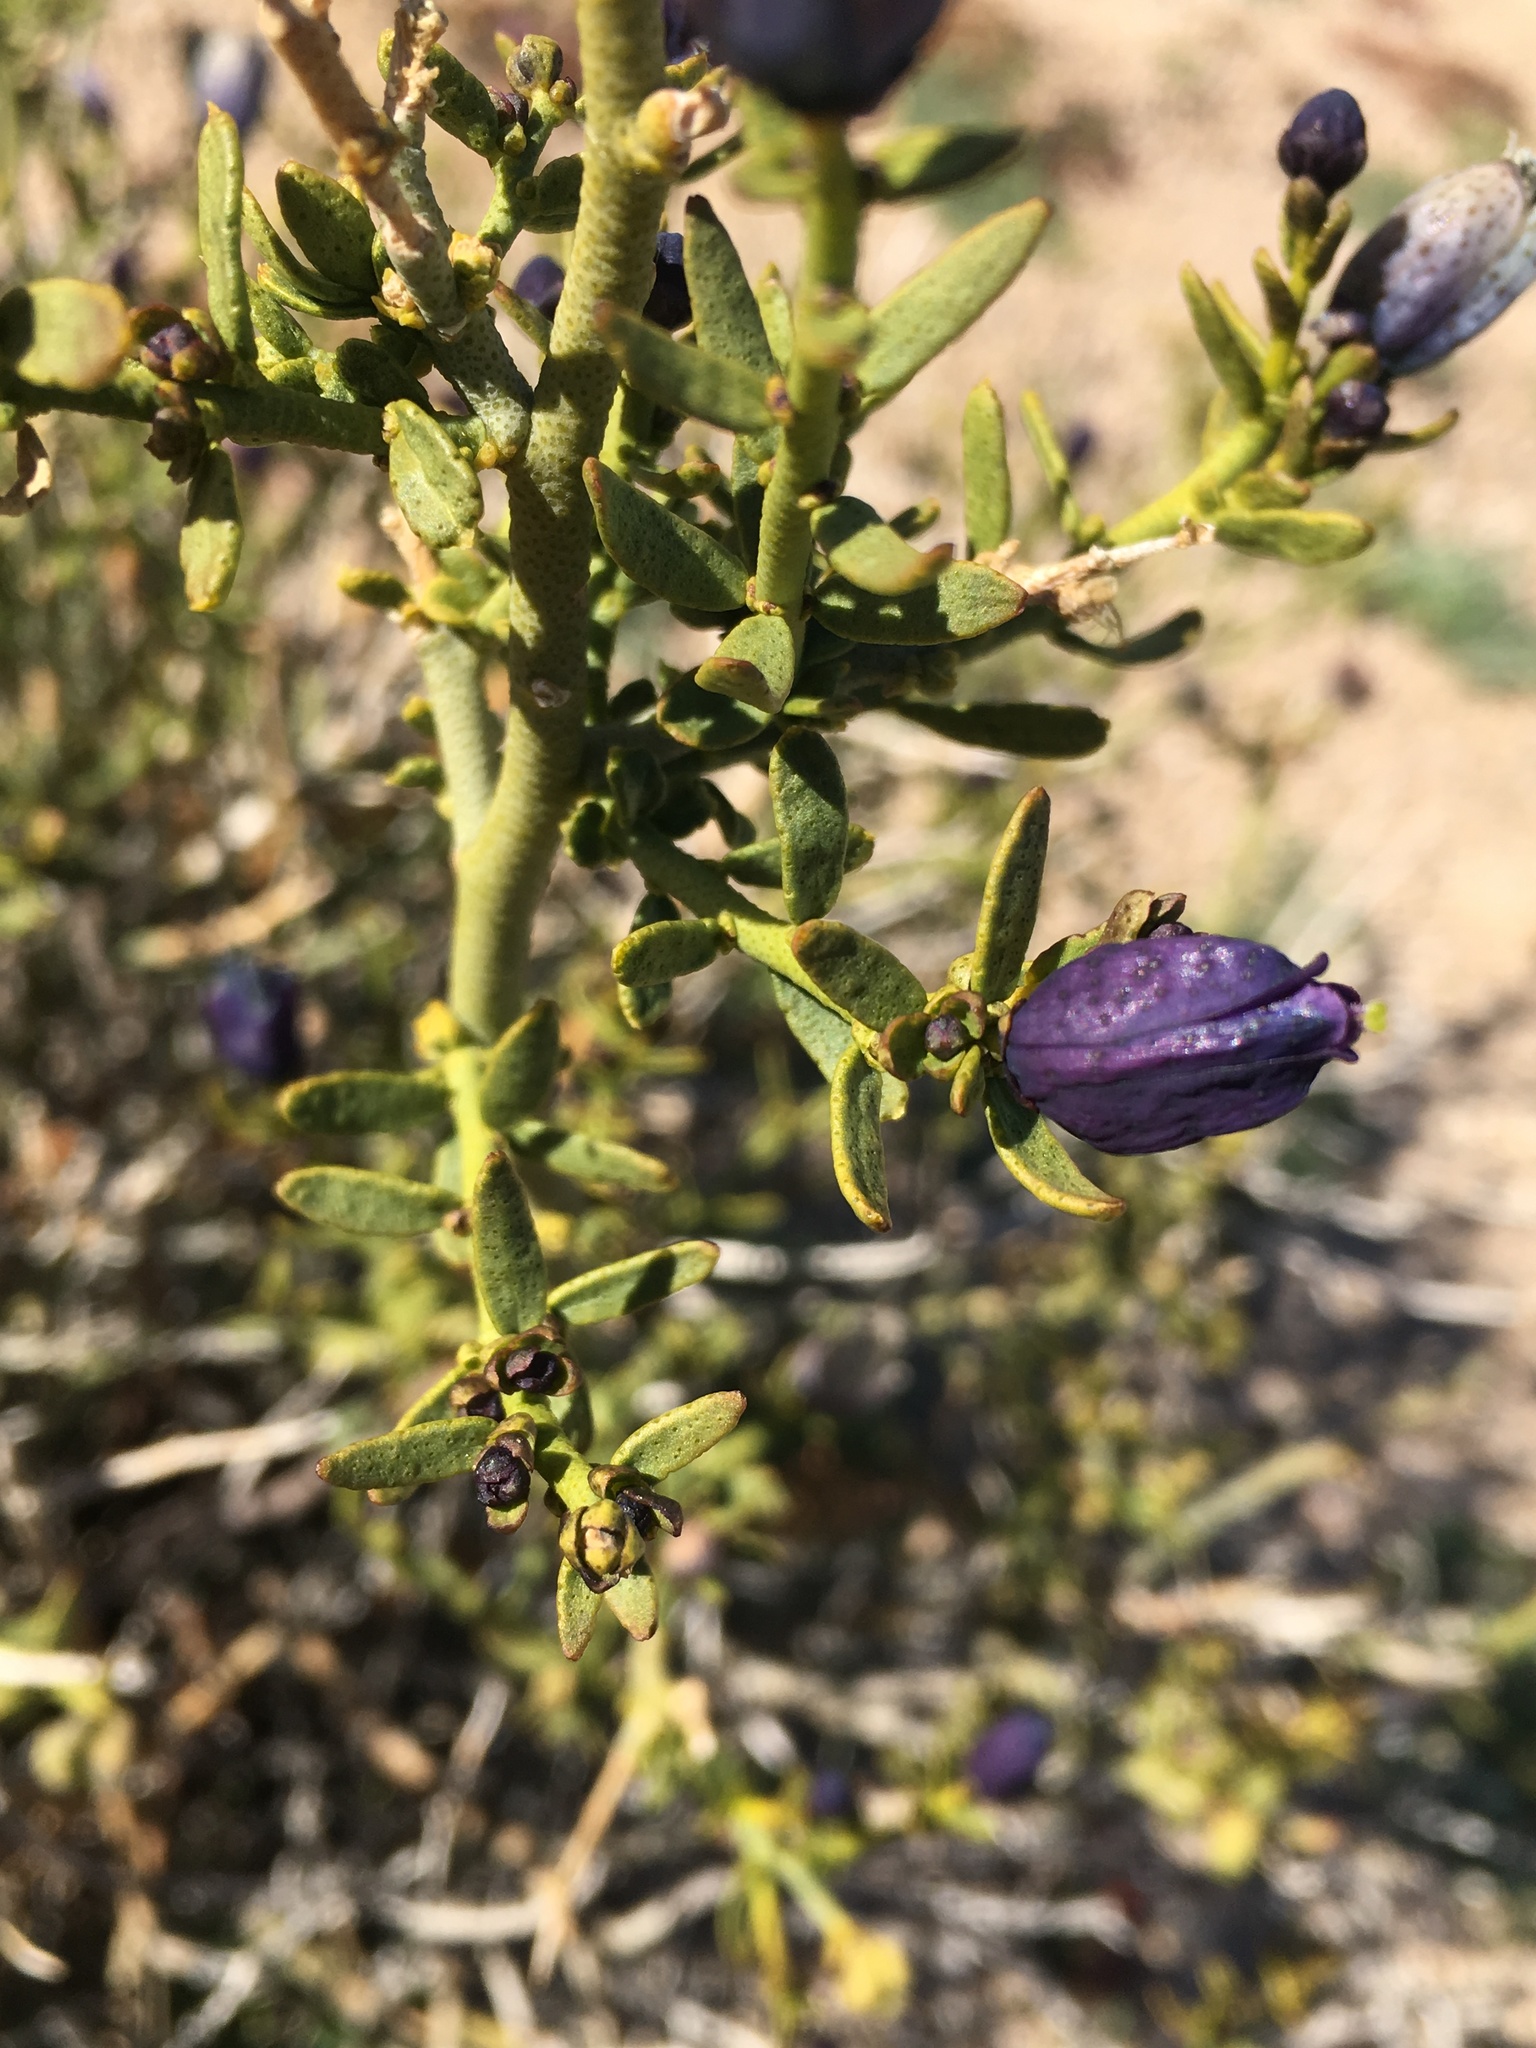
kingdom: Plantae
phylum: Tracheophyta
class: Magnoliopsida
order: Sapindales
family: Rutaceae
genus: Thamnosma
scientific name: Thamnosma montana
